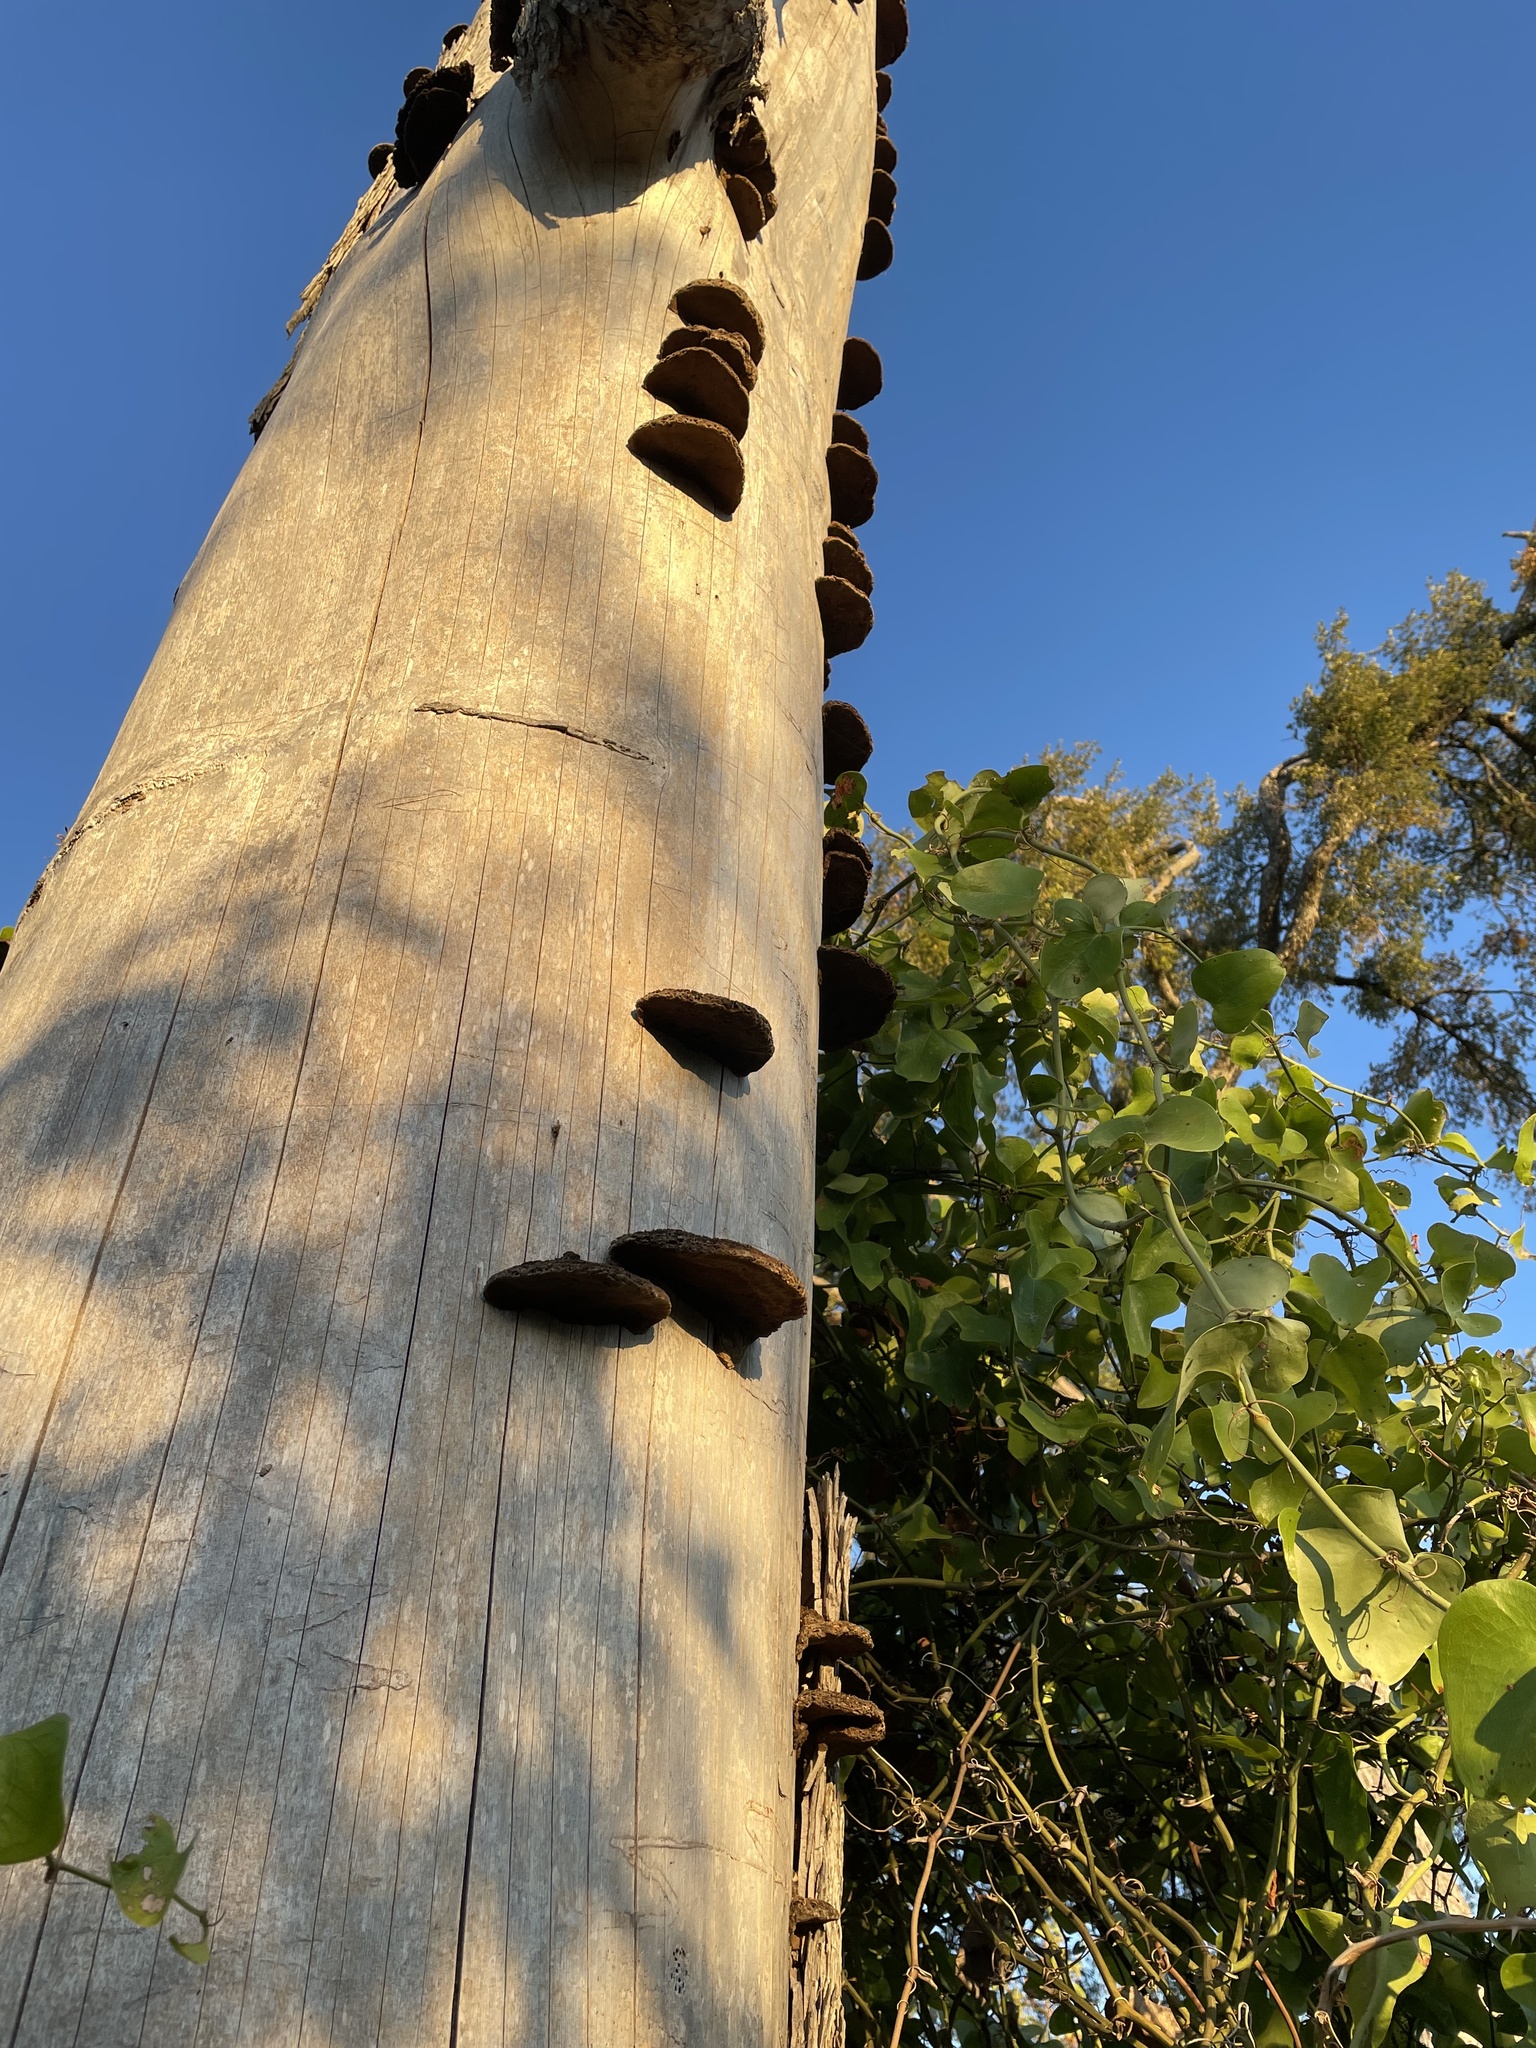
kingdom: Fungi
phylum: Basidiomycota
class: Agaricomycetes
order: Polyporales
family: Cerrenaceae
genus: Cerrena
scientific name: Cerrena hydnoides
